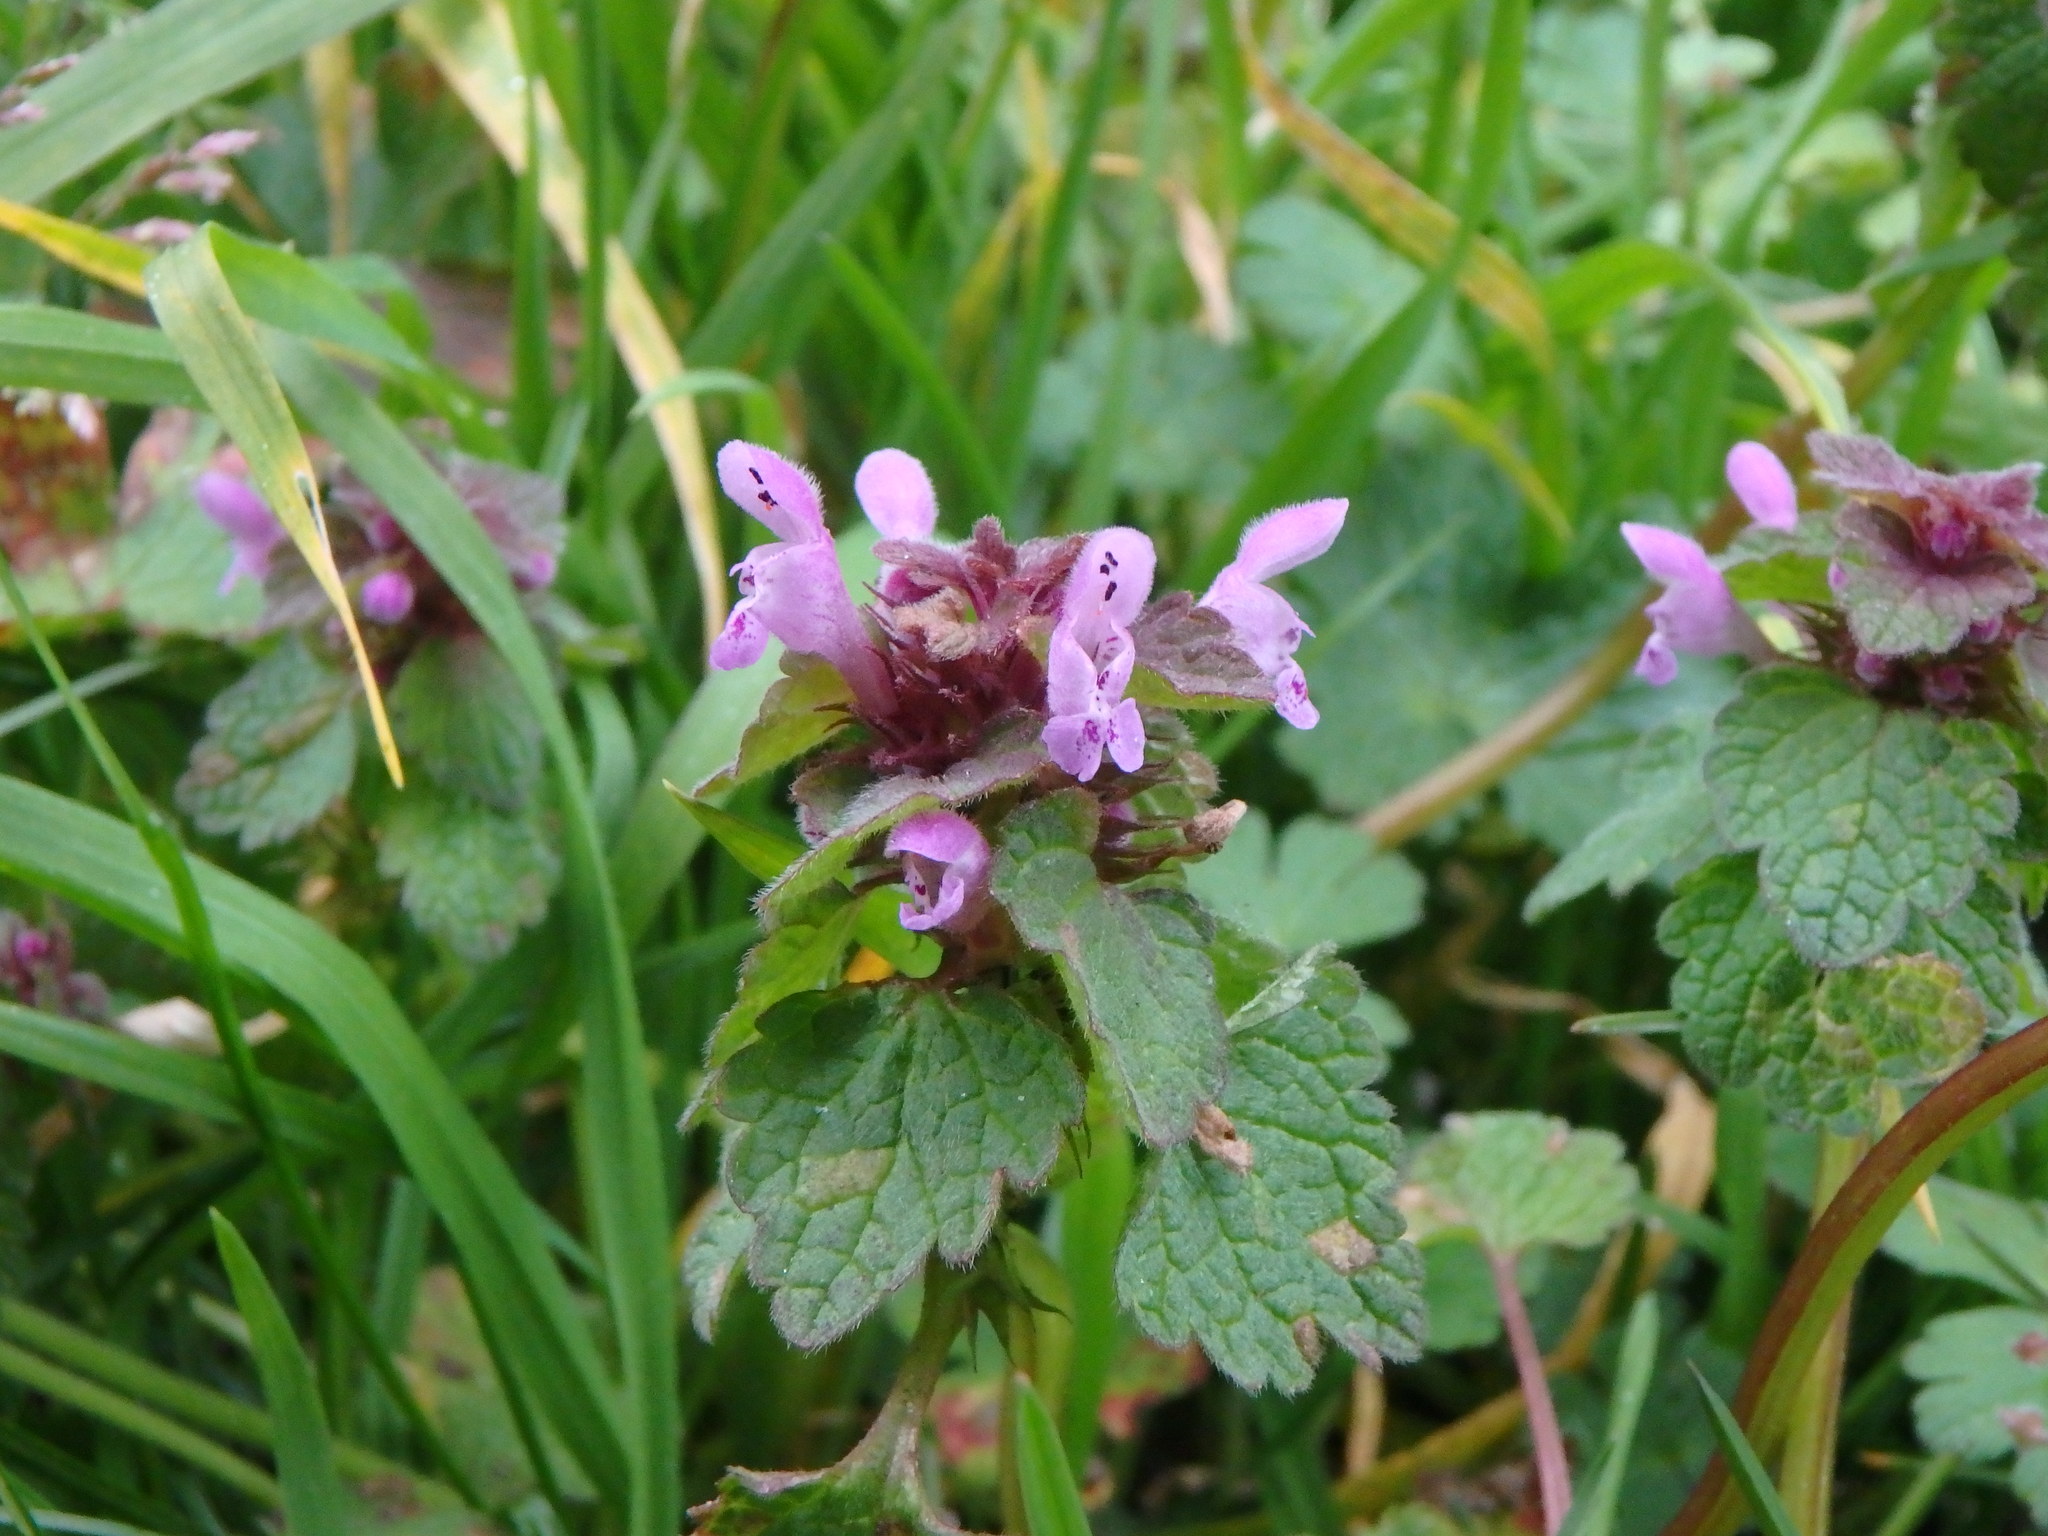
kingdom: Plantae
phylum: Tracheophyta
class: Magnoliopsida
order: Lamiales
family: Lamiaceae
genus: Lamium
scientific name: Lamium purpureum
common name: Red dead-nettle
